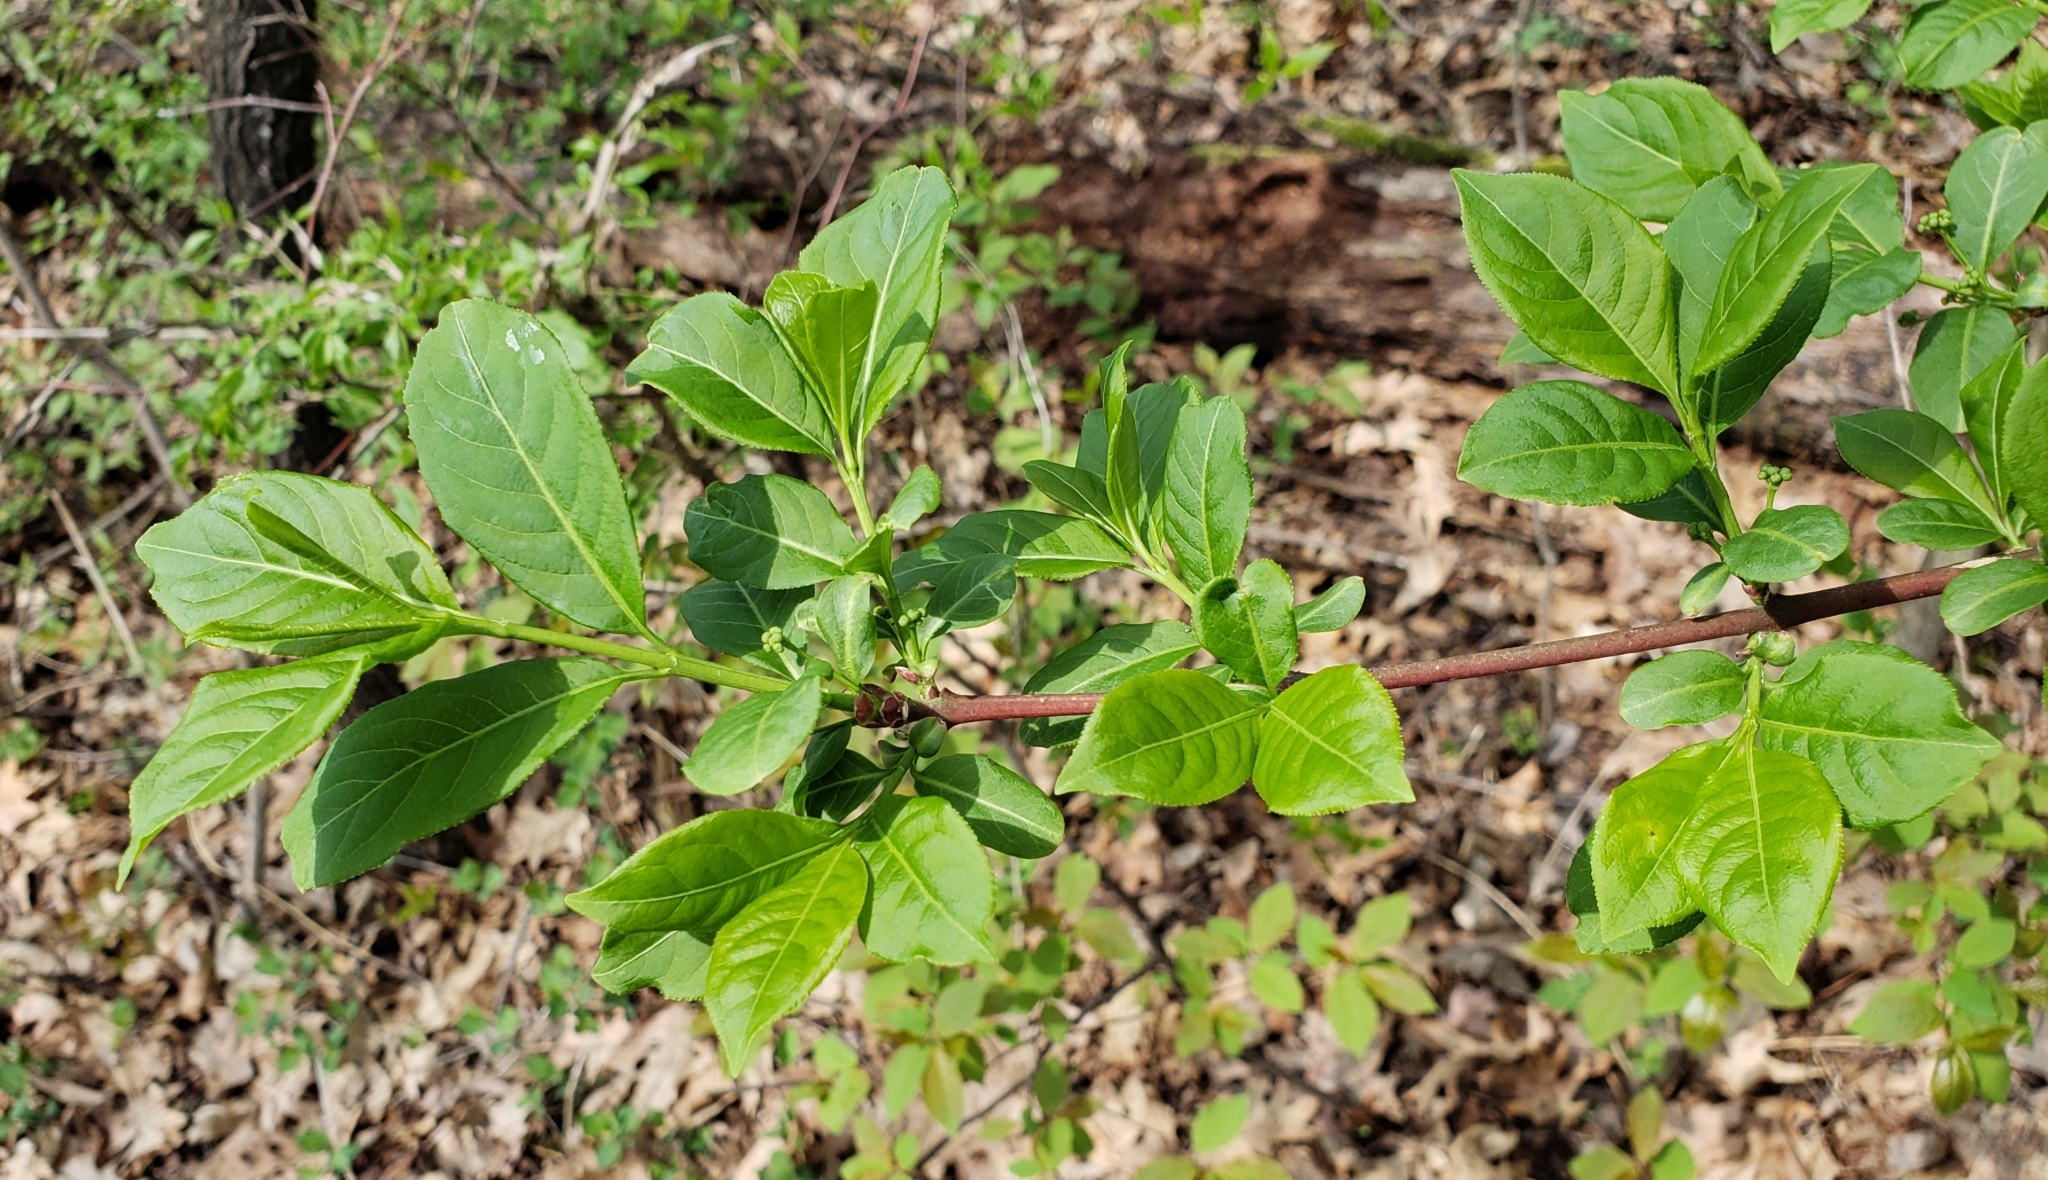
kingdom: Plantae
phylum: Tracheophyta
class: Magnoliopsida
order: Celastrales
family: Celastraceae
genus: Euonymus
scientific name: Euonymus atropurpureus
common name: Eastern wahoo
